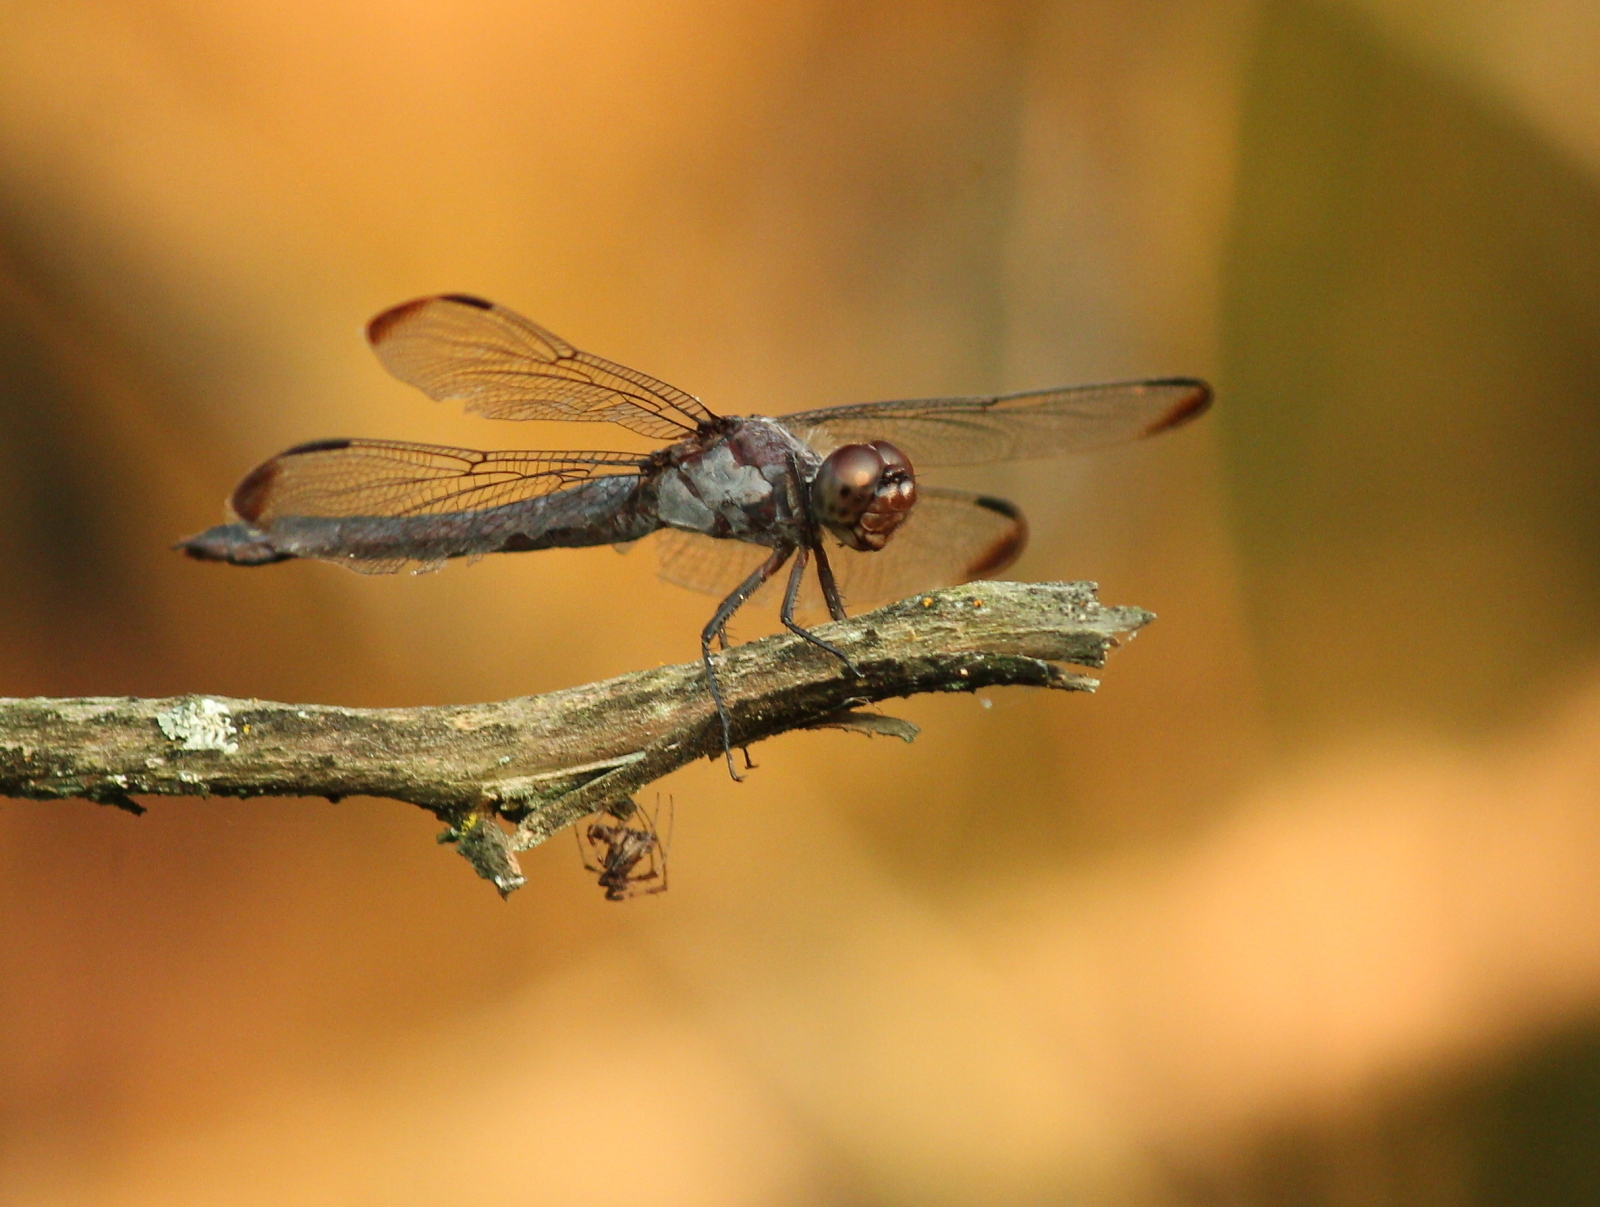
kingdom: Animalia
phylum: Arthropoda
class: Insecta
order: Odonata
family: Libellulidae
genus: Libellula
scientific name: Libellula incesta
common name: Slaty skimmer
